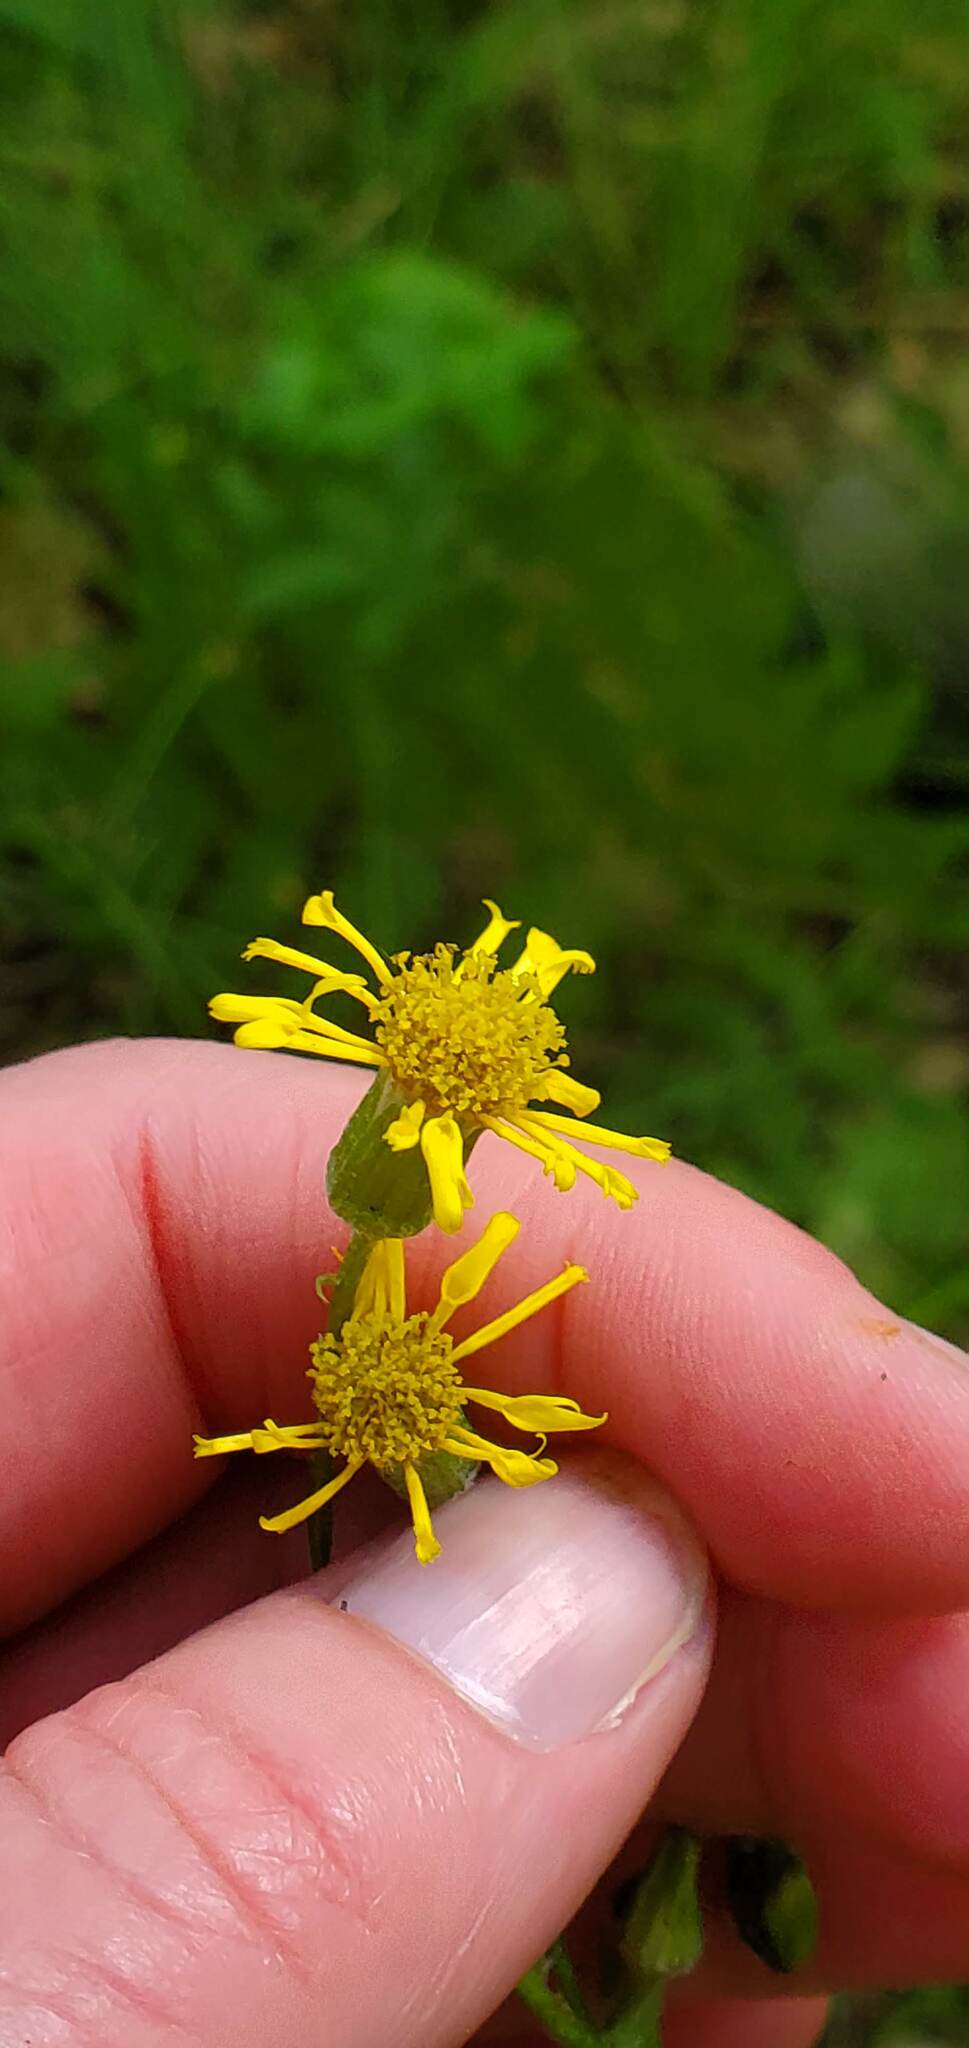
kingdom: Plantae
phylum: Tracheophyta
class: Magnoliopsida
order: Asterales
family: Asteraceae
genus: Packera
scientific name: Packera paupercula
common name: Balsam groundsel
